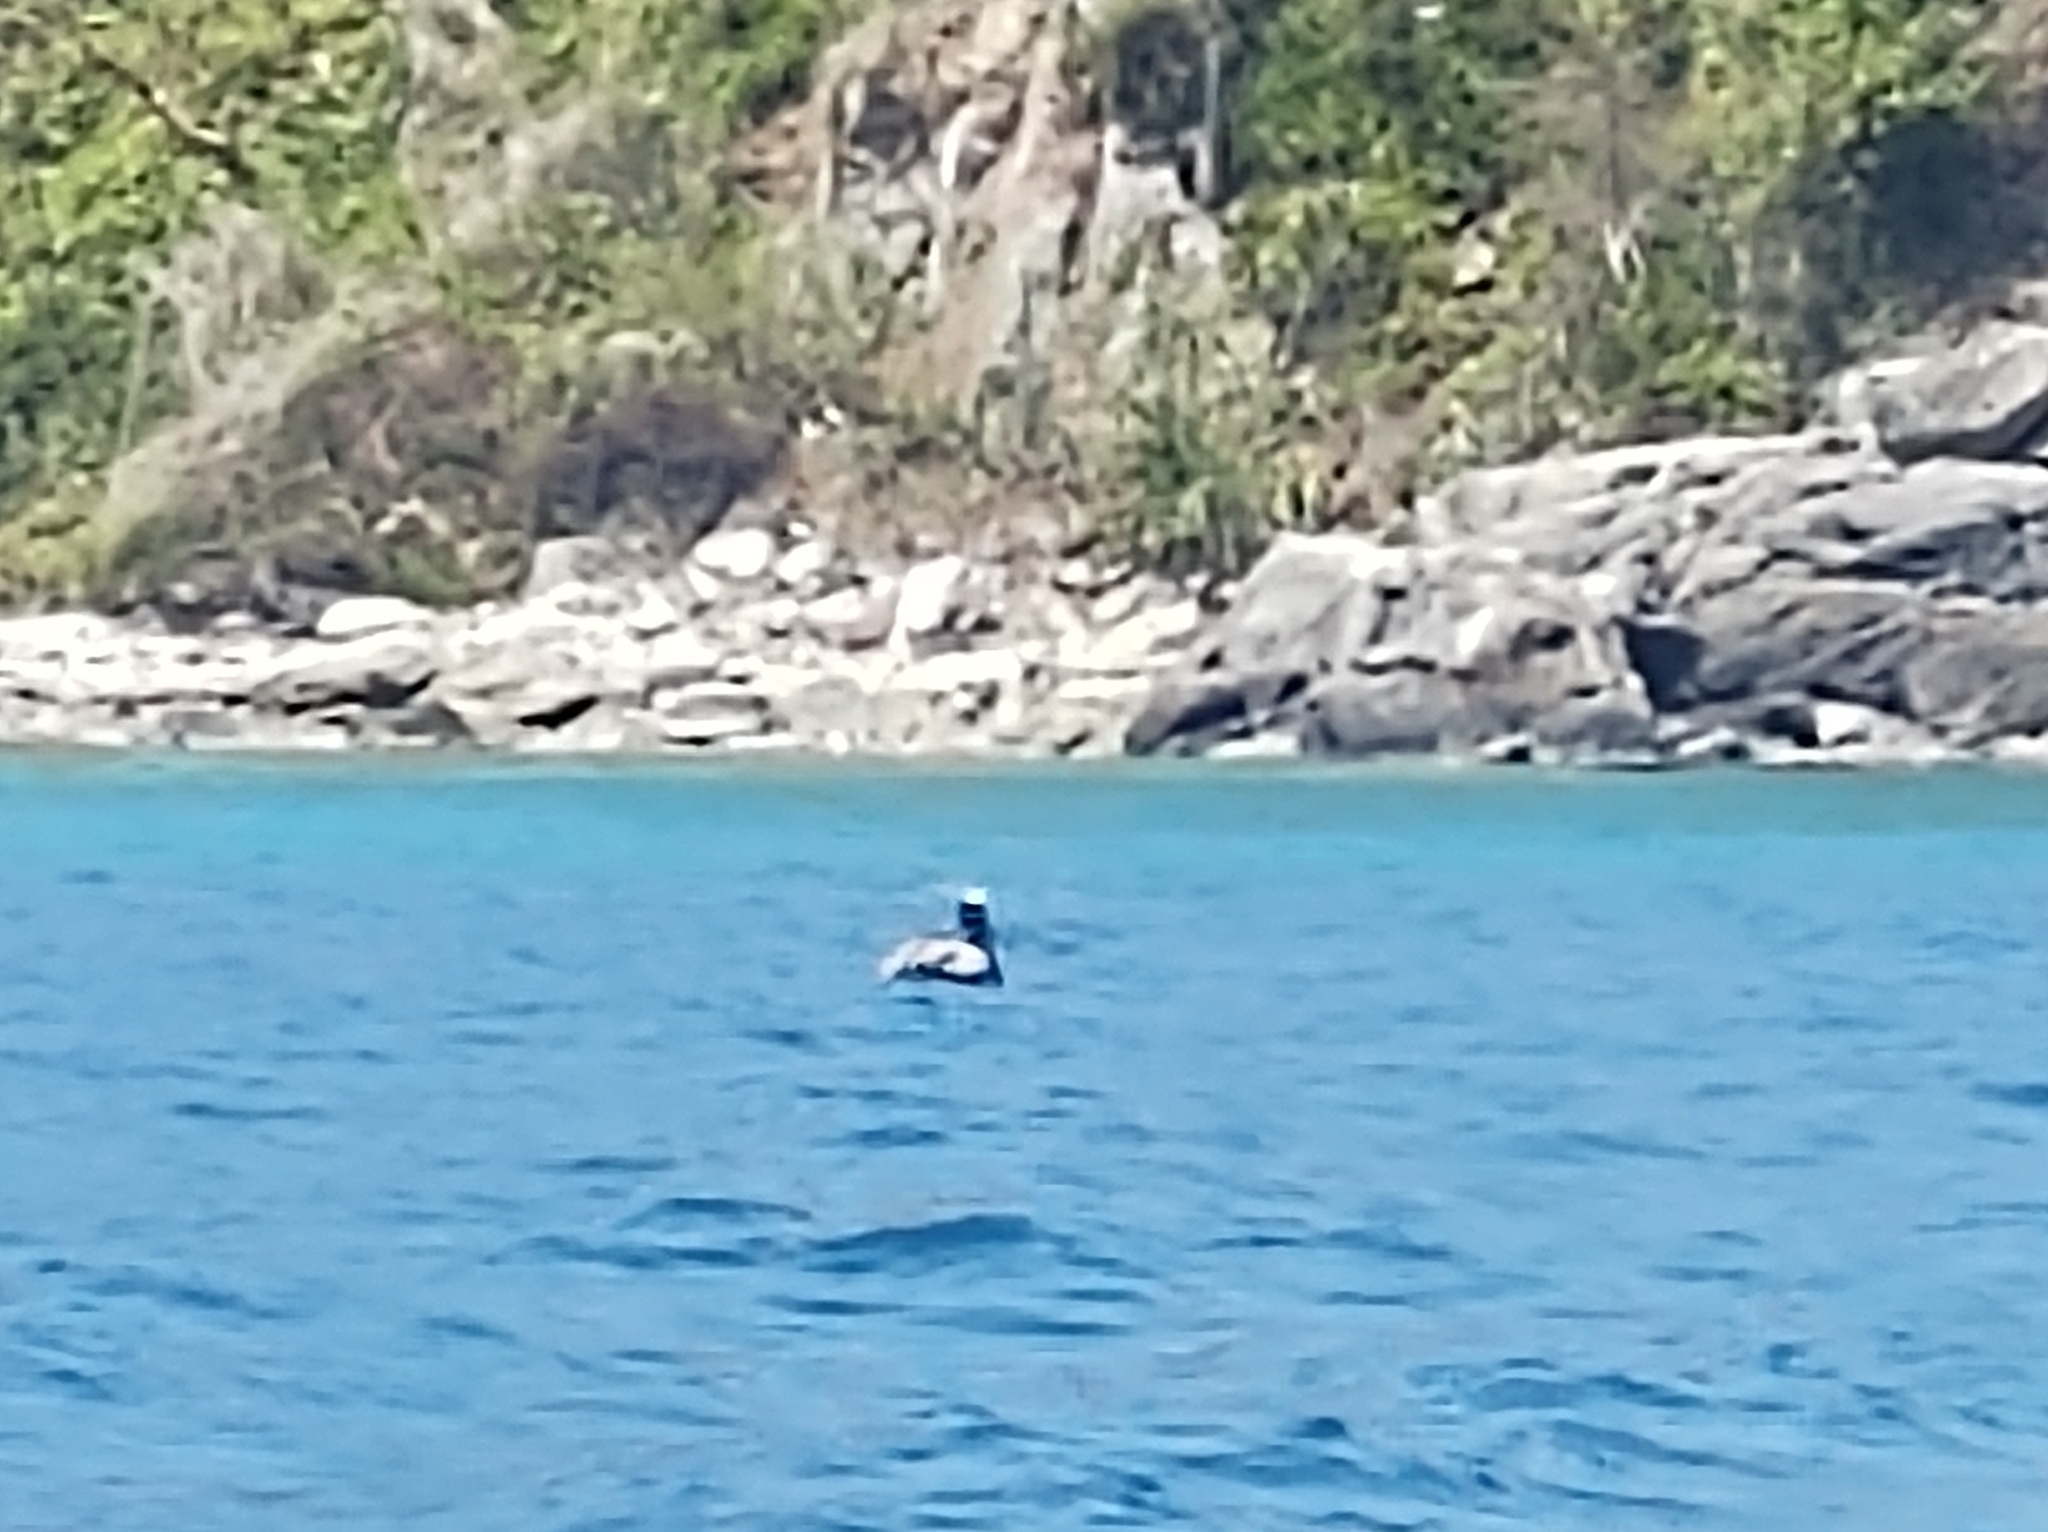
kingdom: Animalia
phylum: Chordata
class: Aves
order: Pelecaniformes
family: Pelecanidae
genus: Pelecanus
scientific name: Pelecanus occidentalis
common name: Brown pelican
